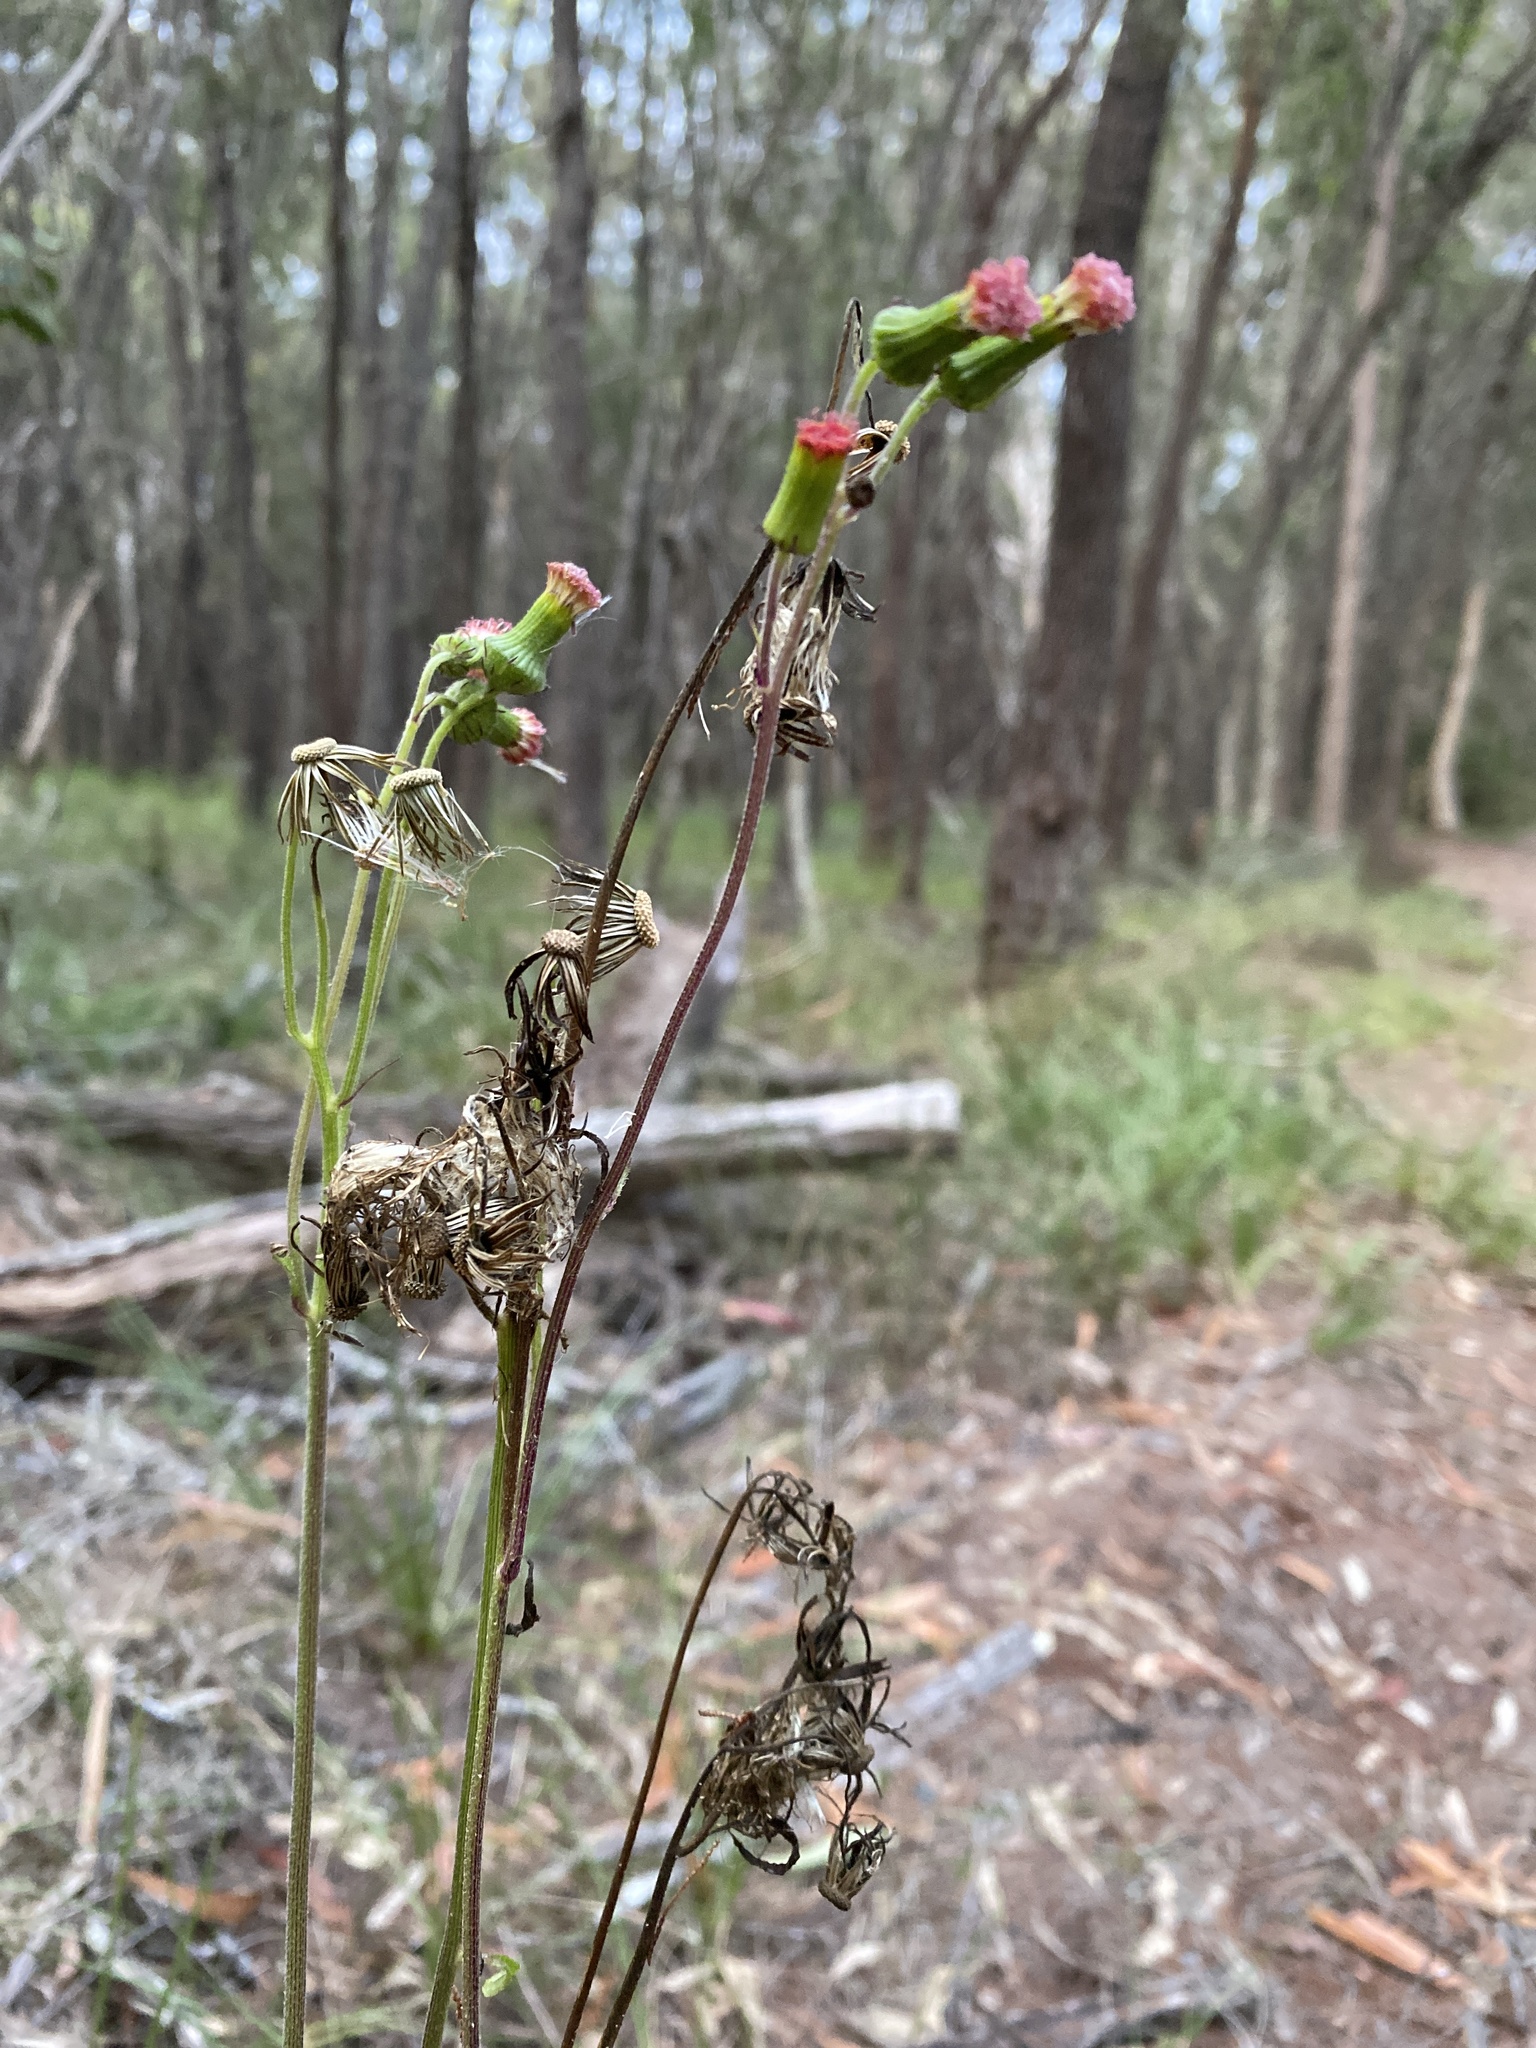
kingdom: Plantae
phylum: Tracheophyta
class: Magnoliopsida
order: Asterales
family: Asteraceae
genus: Crassocephalum
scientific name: Crassocephalum crepidioides
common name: Redflower ragleaf
